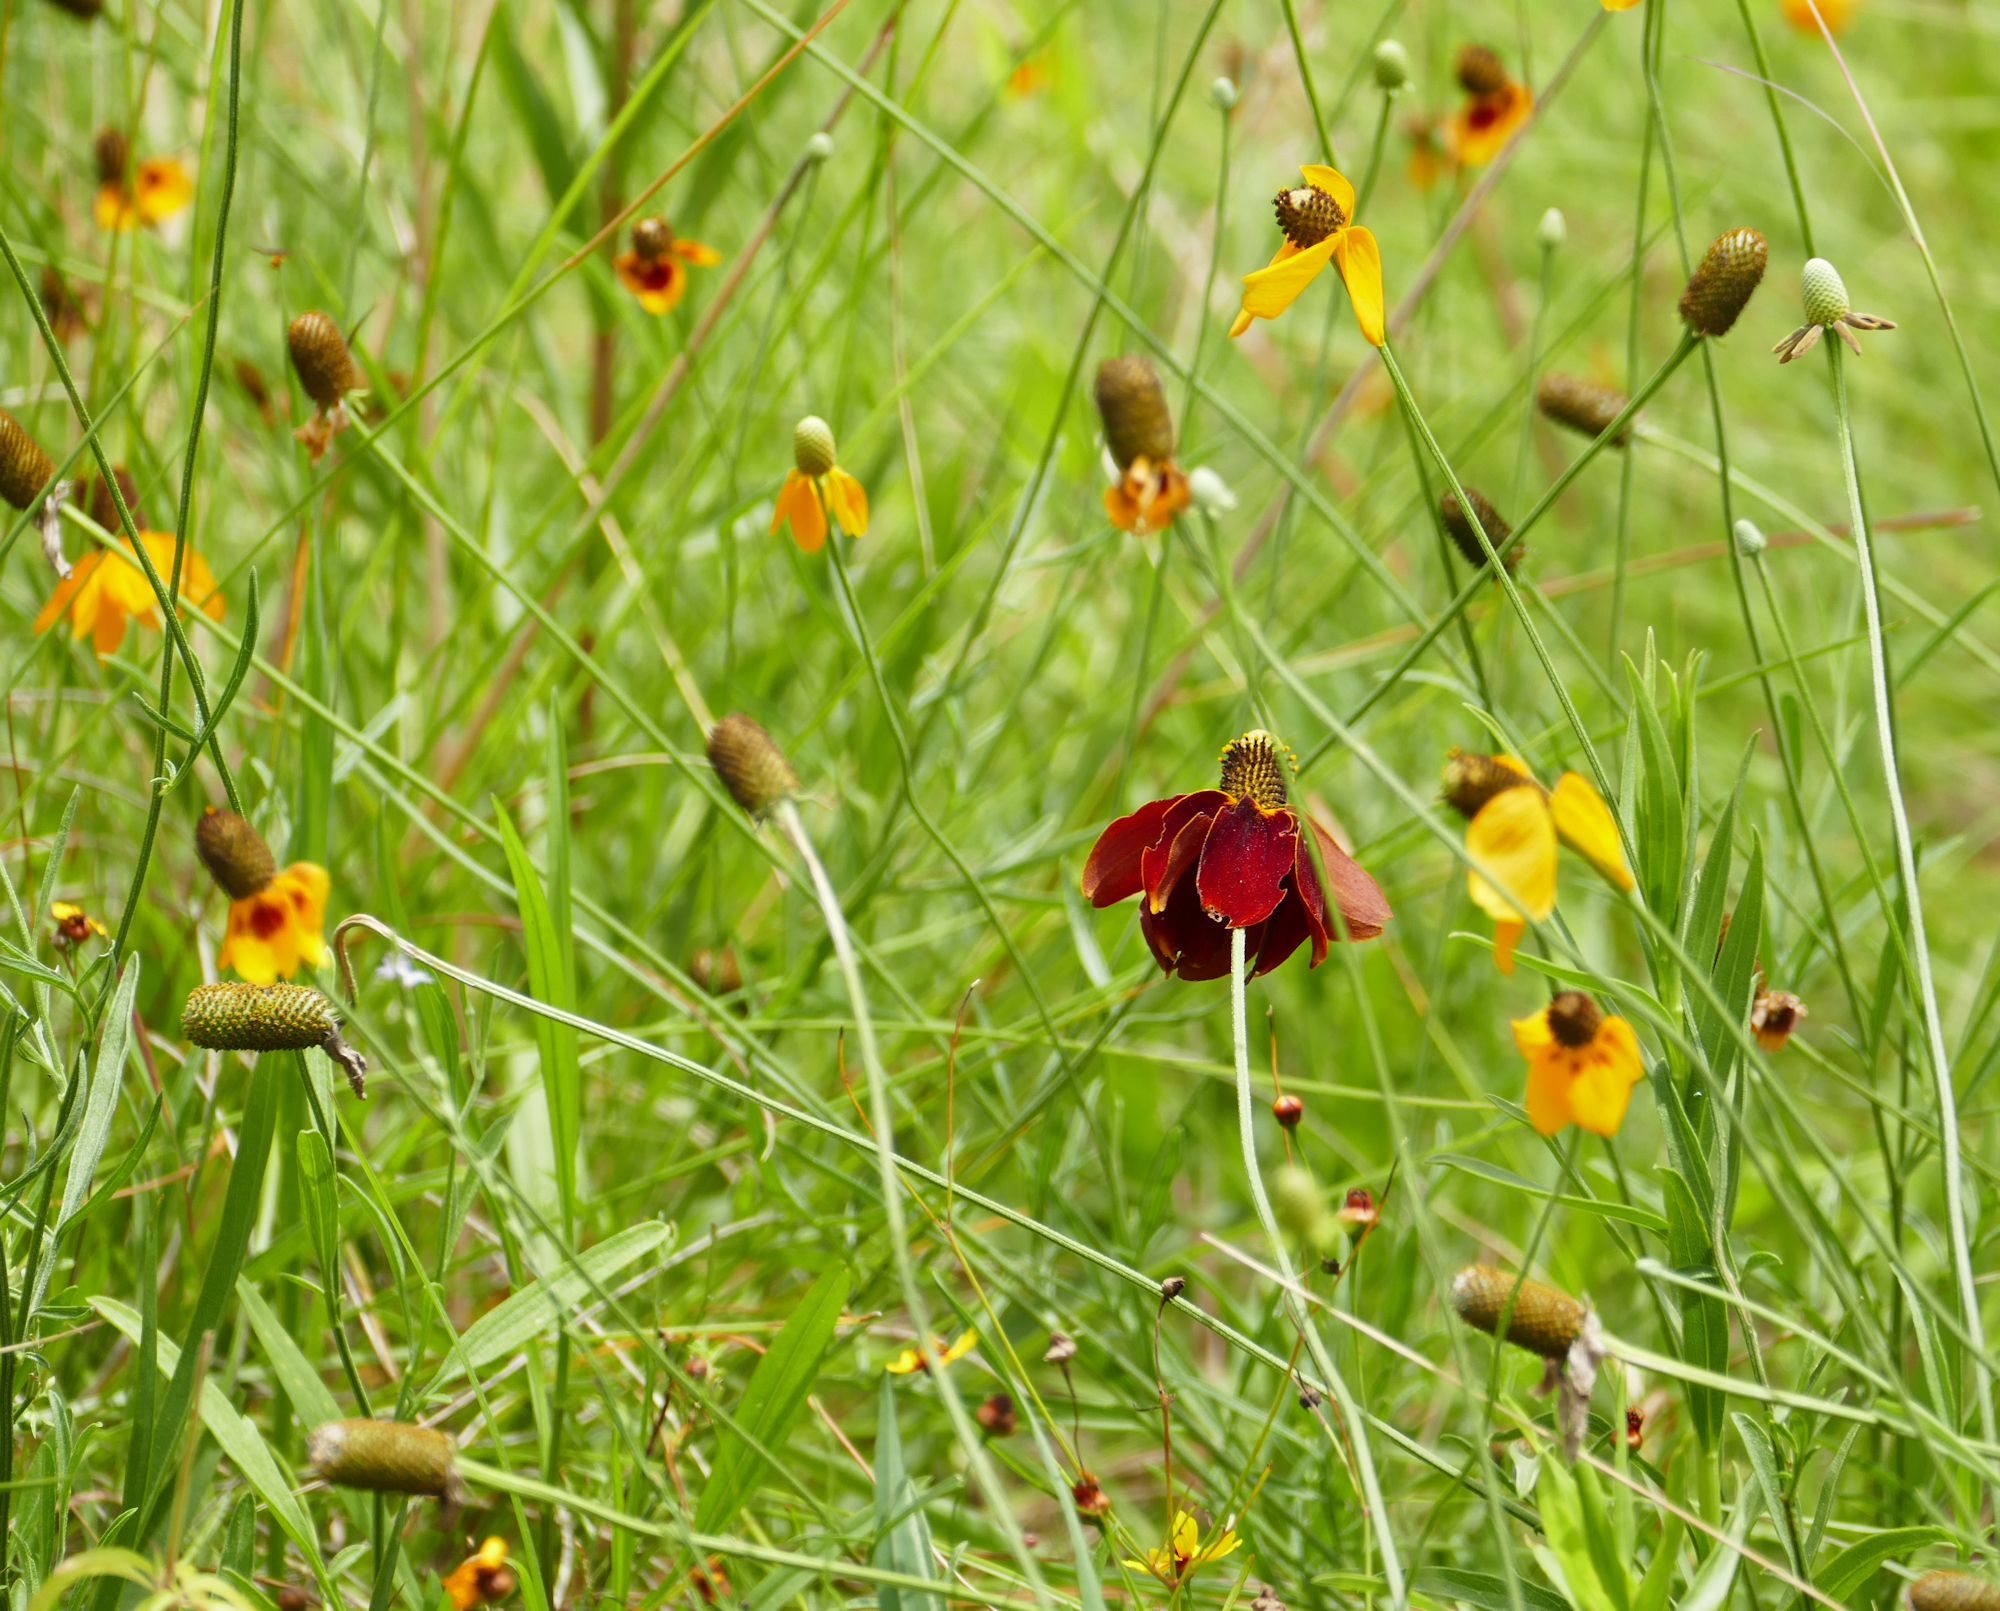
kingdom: Plantae
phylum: Tracheophyta
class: Magnoliopsida
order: Asterales
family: Asteraceae
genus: Ratibida
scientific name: Ratibida columnifera
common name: Prairie coneflower
